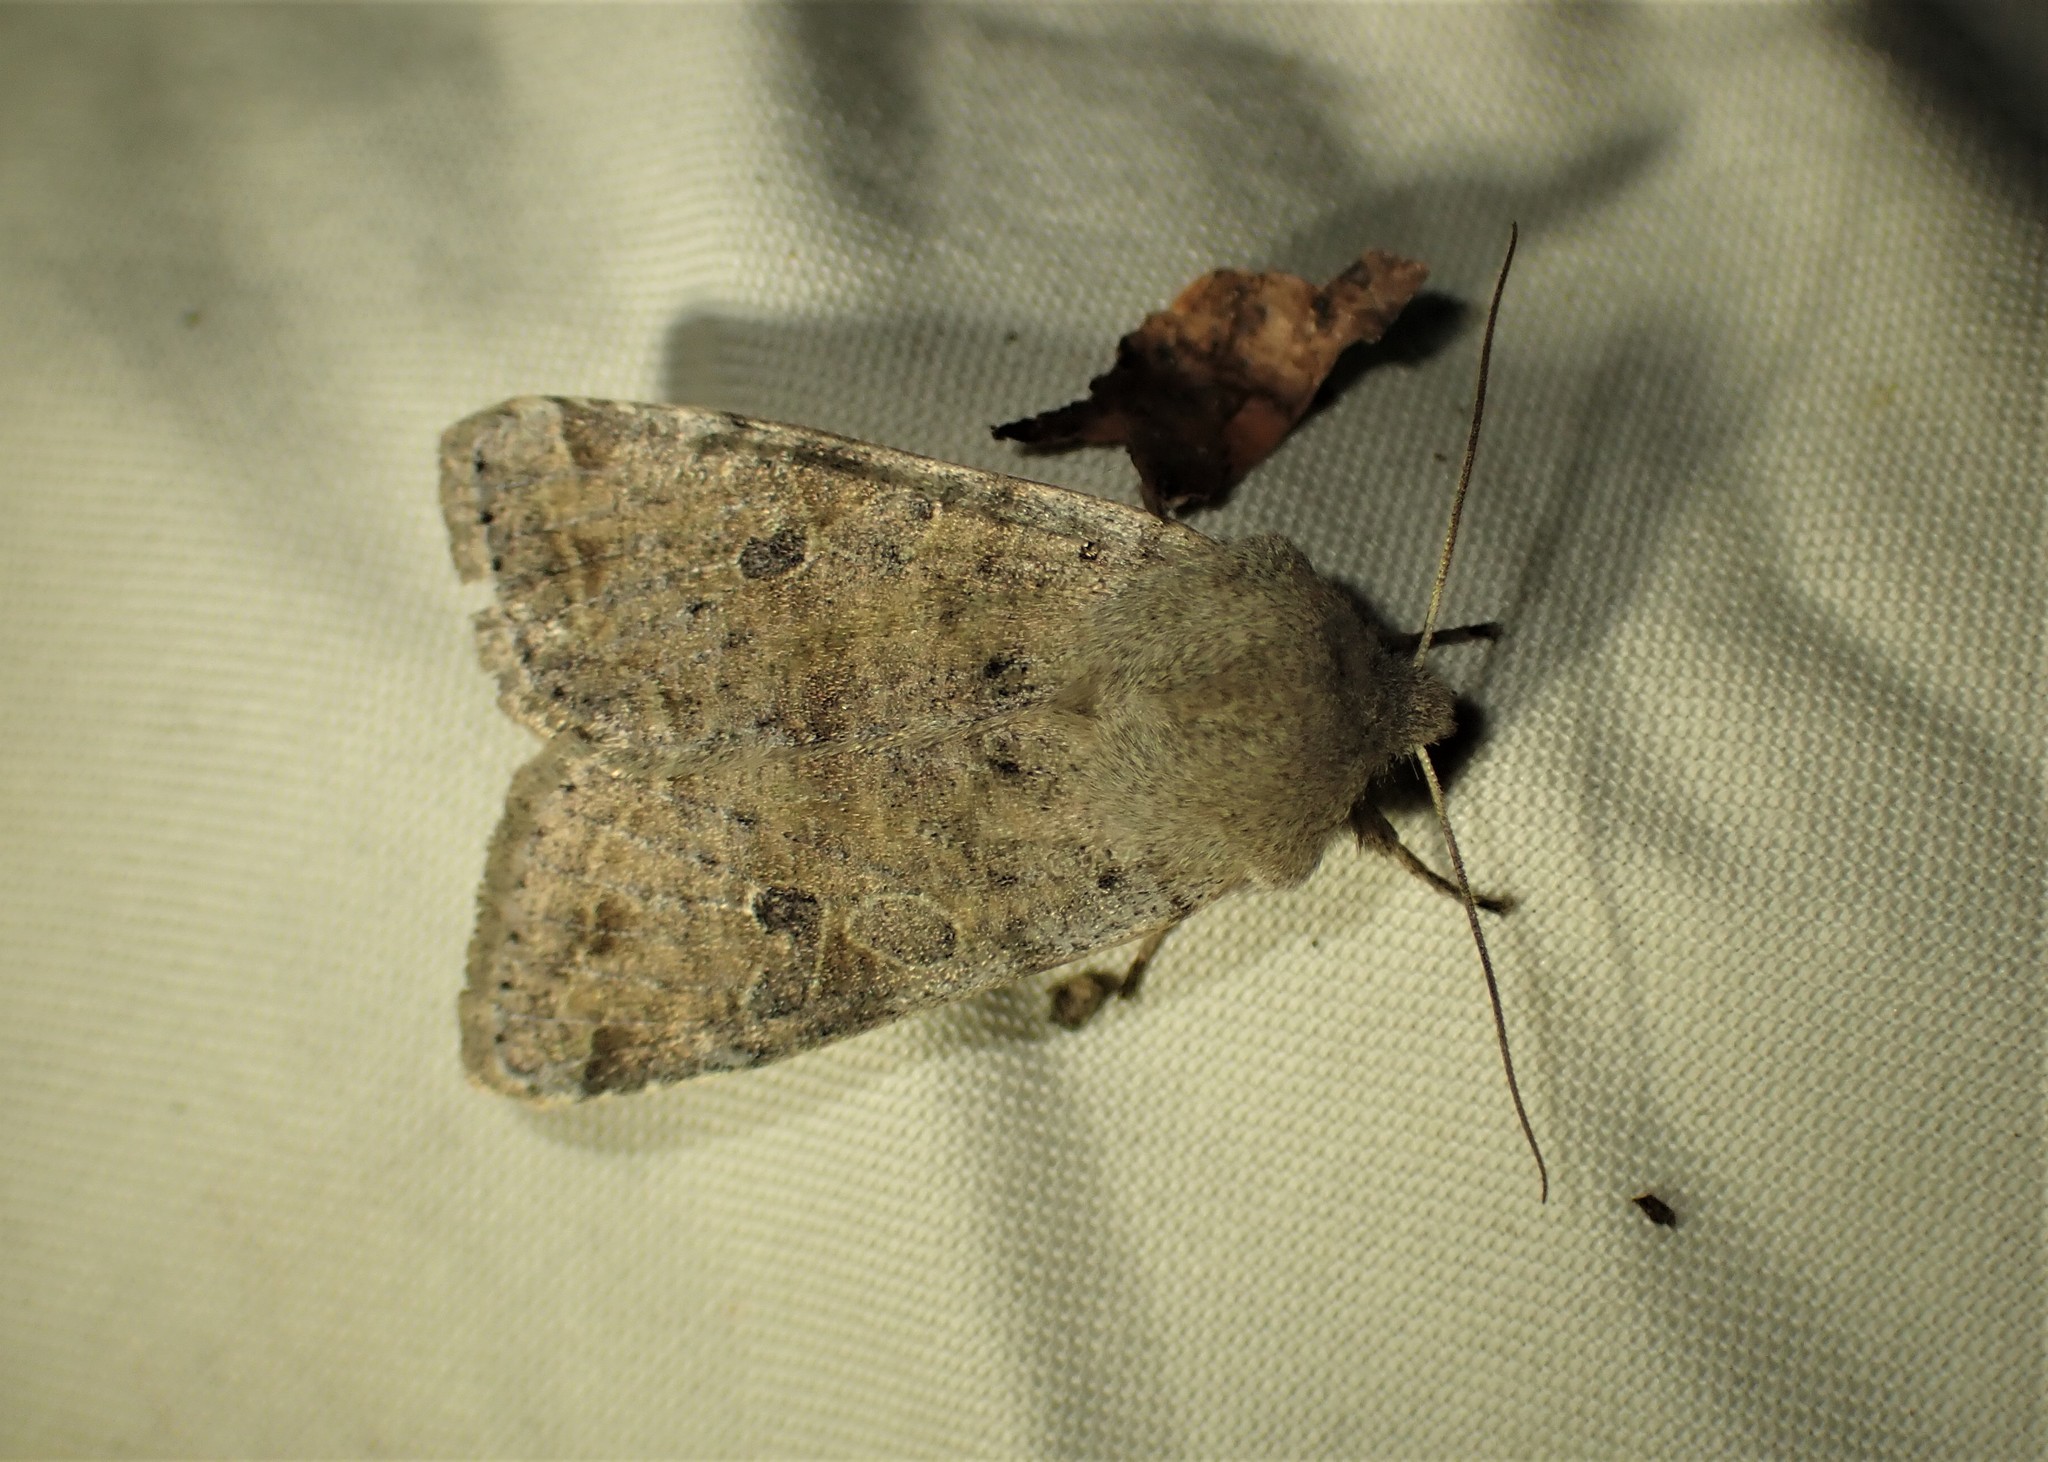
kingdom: Animalia
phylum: Arthropoda
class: Insecta
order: Lepidoptera
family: Noctuidae
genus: Orthosia
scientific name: Orthosia hibisci
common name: Green fruitworm
